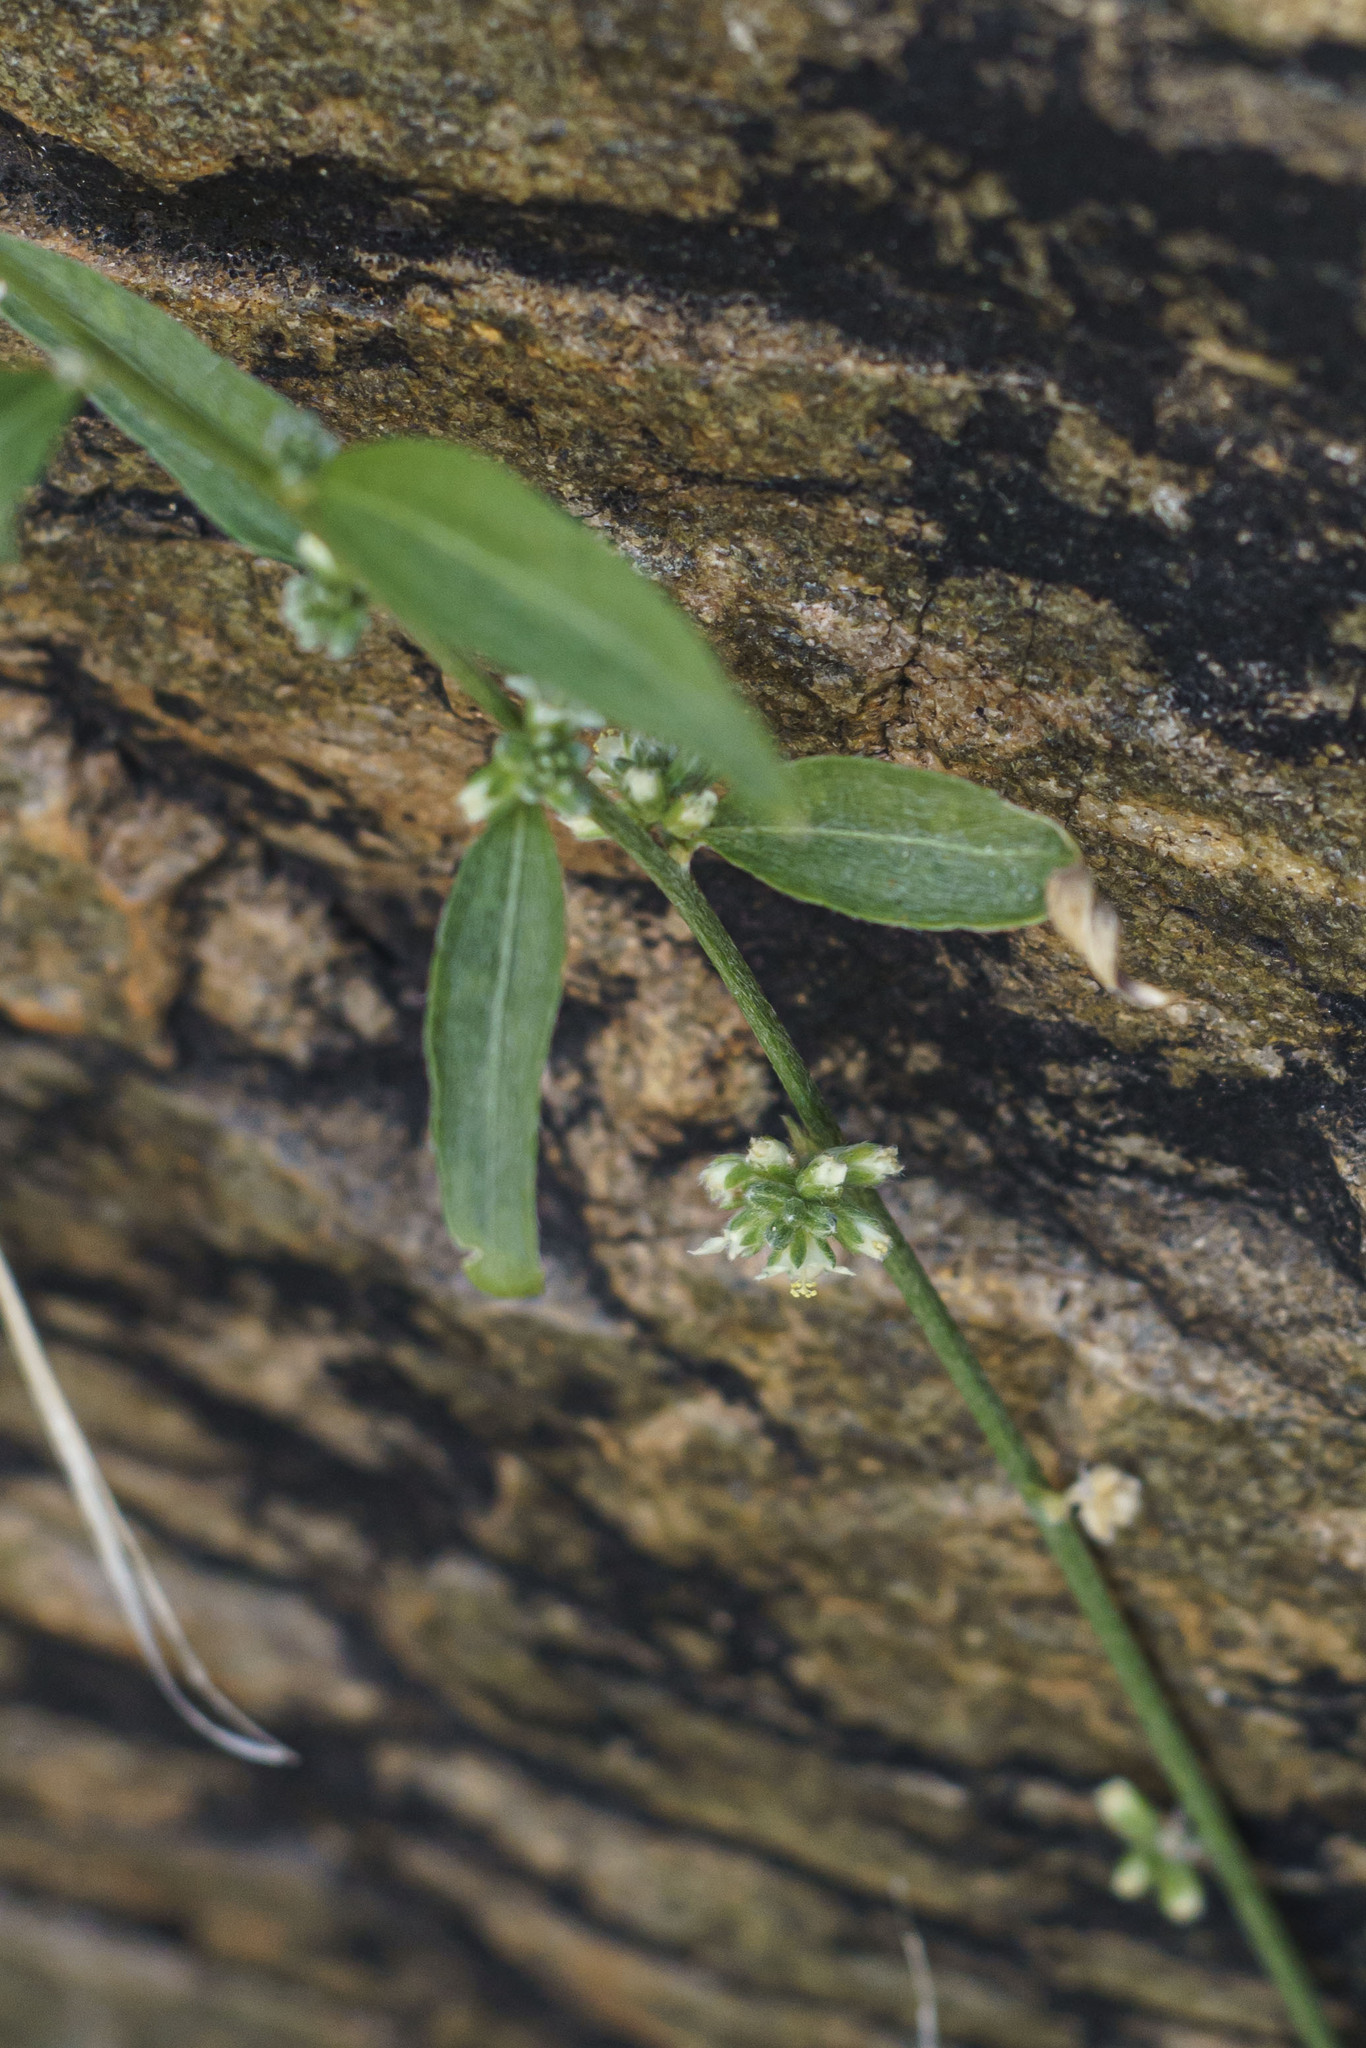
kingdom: Plantae
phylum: Tracheophyta
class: Magnoliopsida
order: Malpighiales
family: Euphorbiaceae
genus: Ditaxis
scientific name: Ditaxis lanceolata
